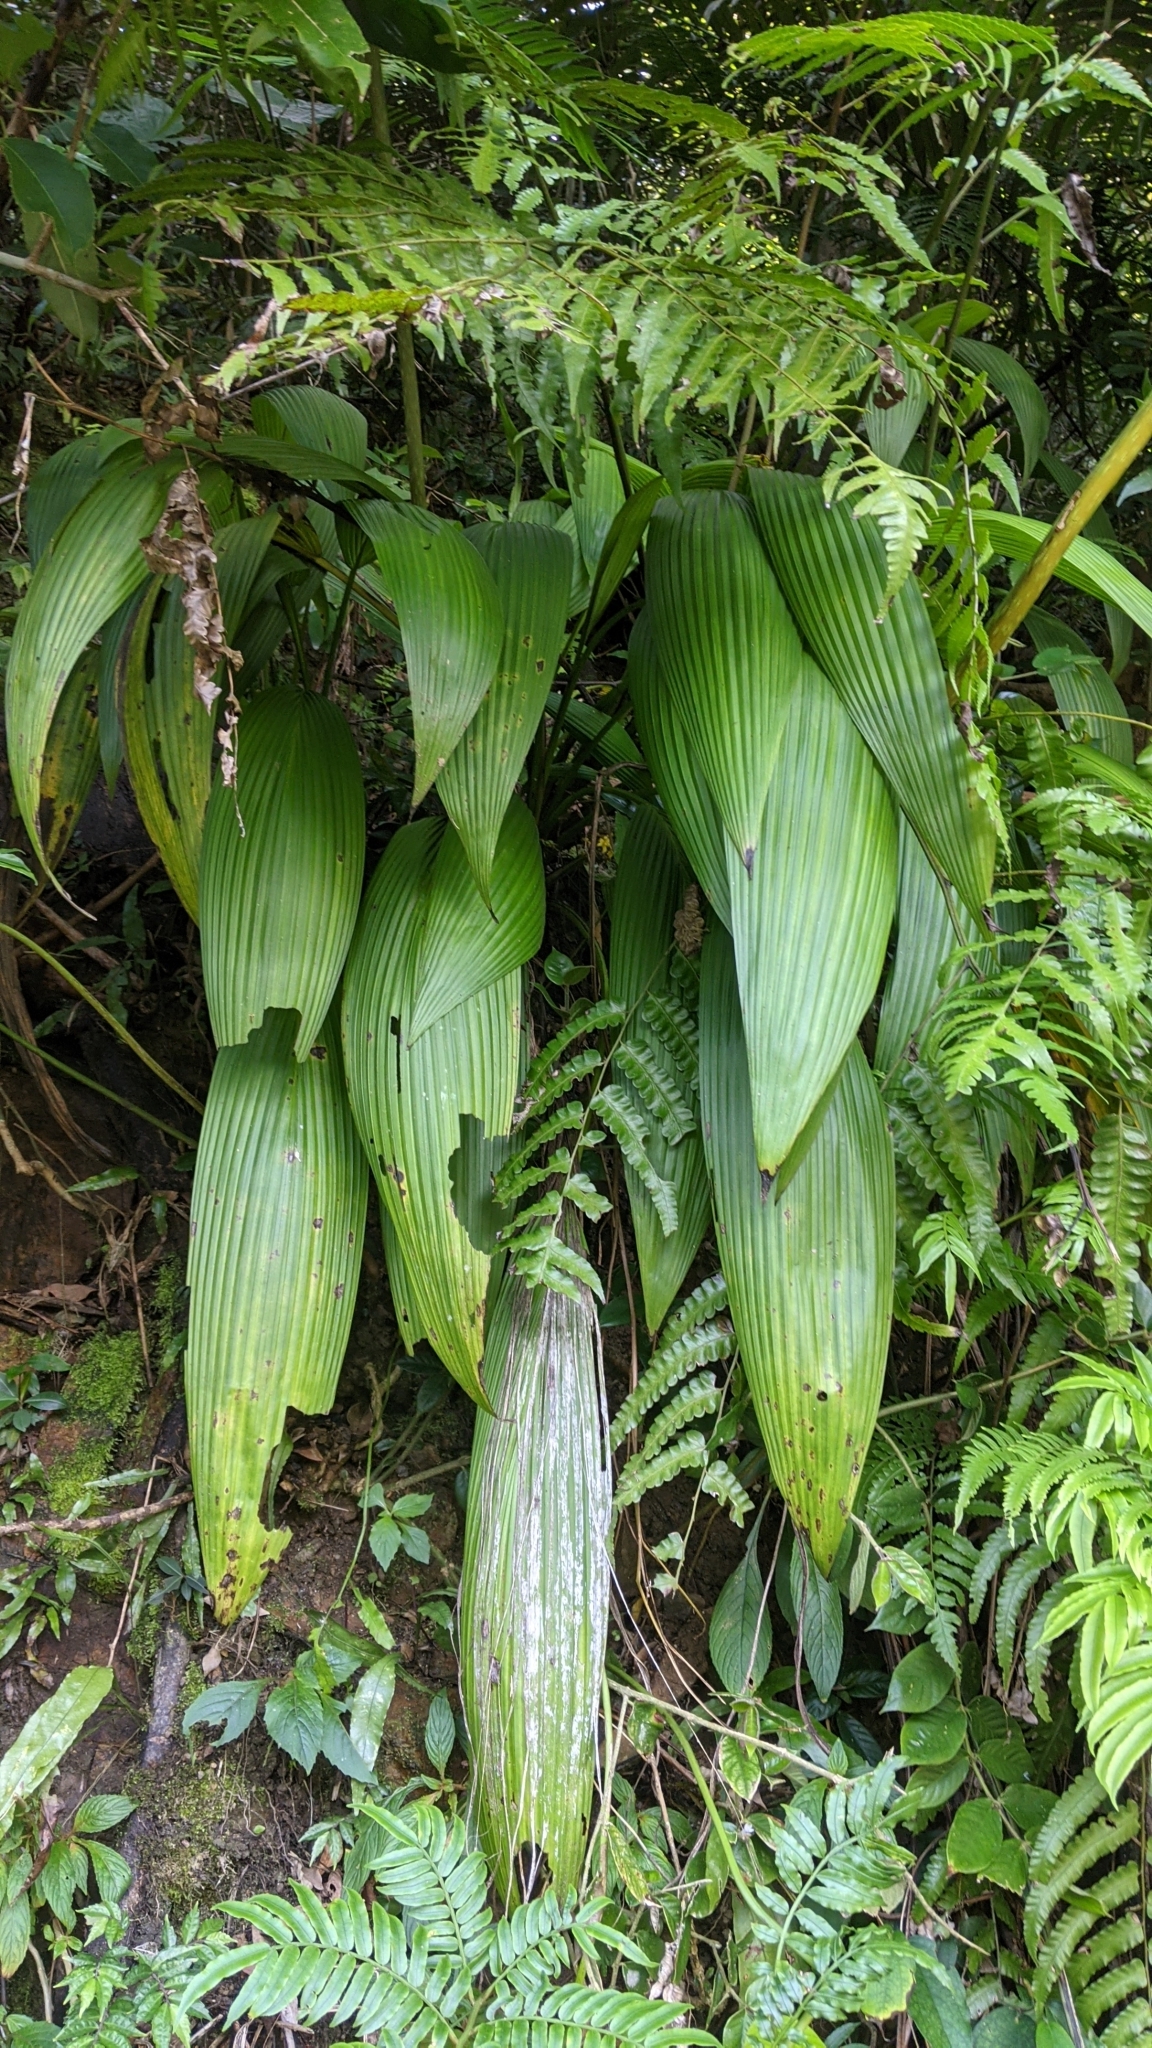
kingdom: Plantae
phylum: Tracheophyta
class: Liliopsida
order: Asparagales
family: Hypoxidaceae
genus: Curculigo
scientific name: Curculigo capitulata
